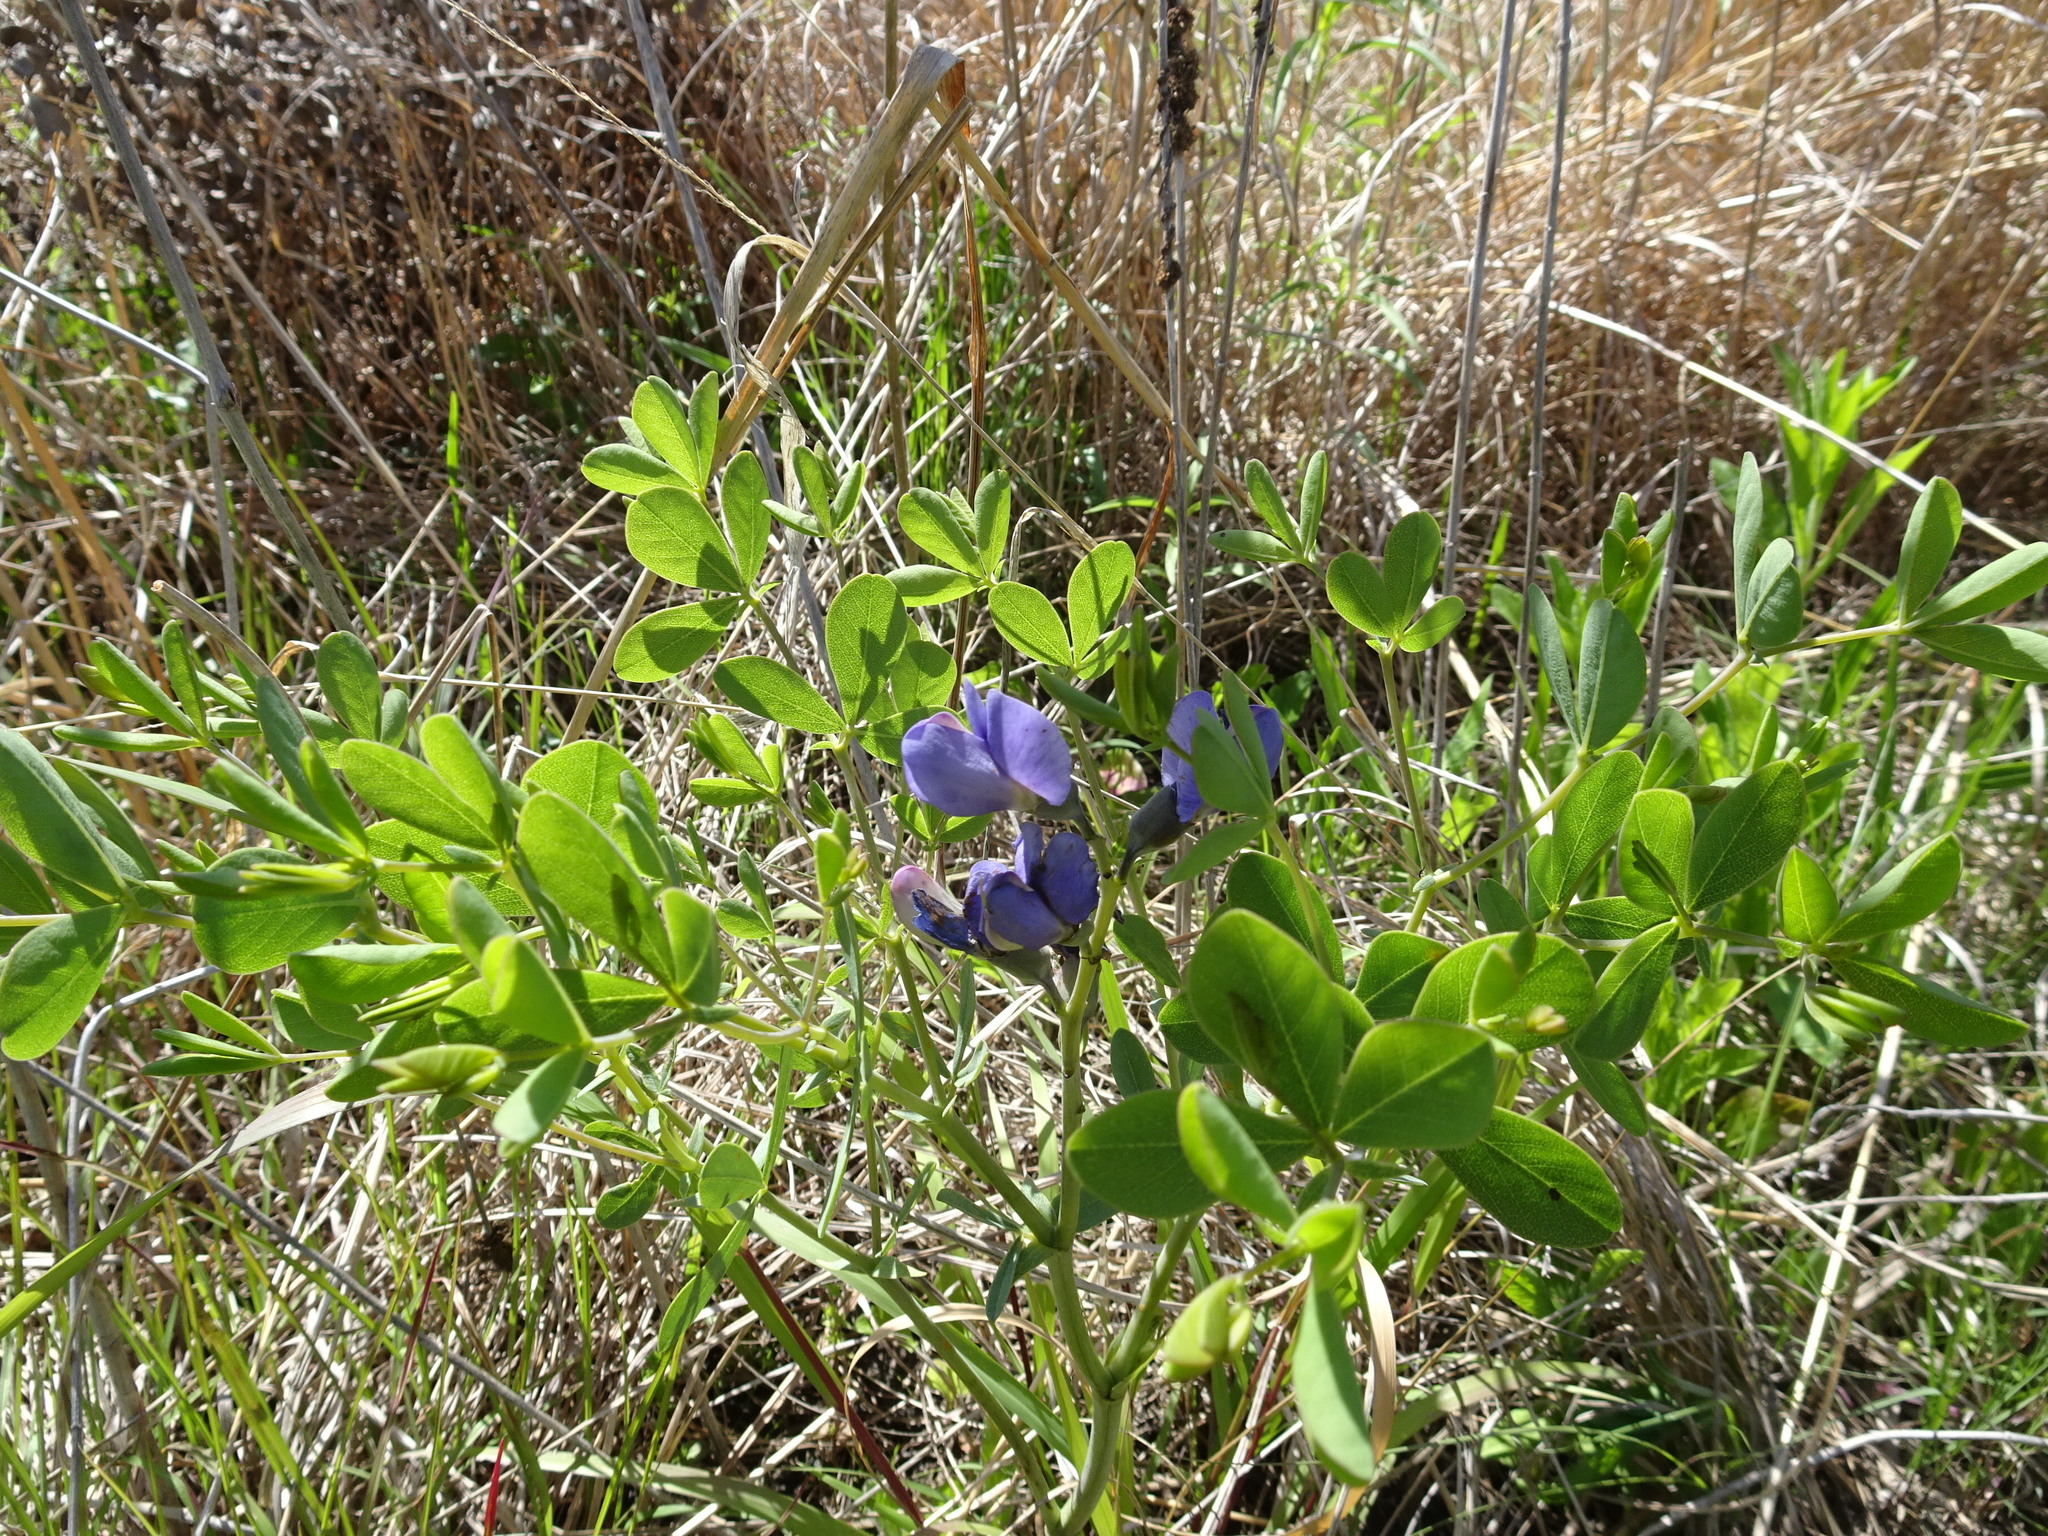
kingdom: Plantae
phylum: Tracheophyta
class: Magnoliopsida
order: Fabales
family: Fabaceae
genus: Baptisia
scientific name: Baptisia australis
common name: Blue false indigo
